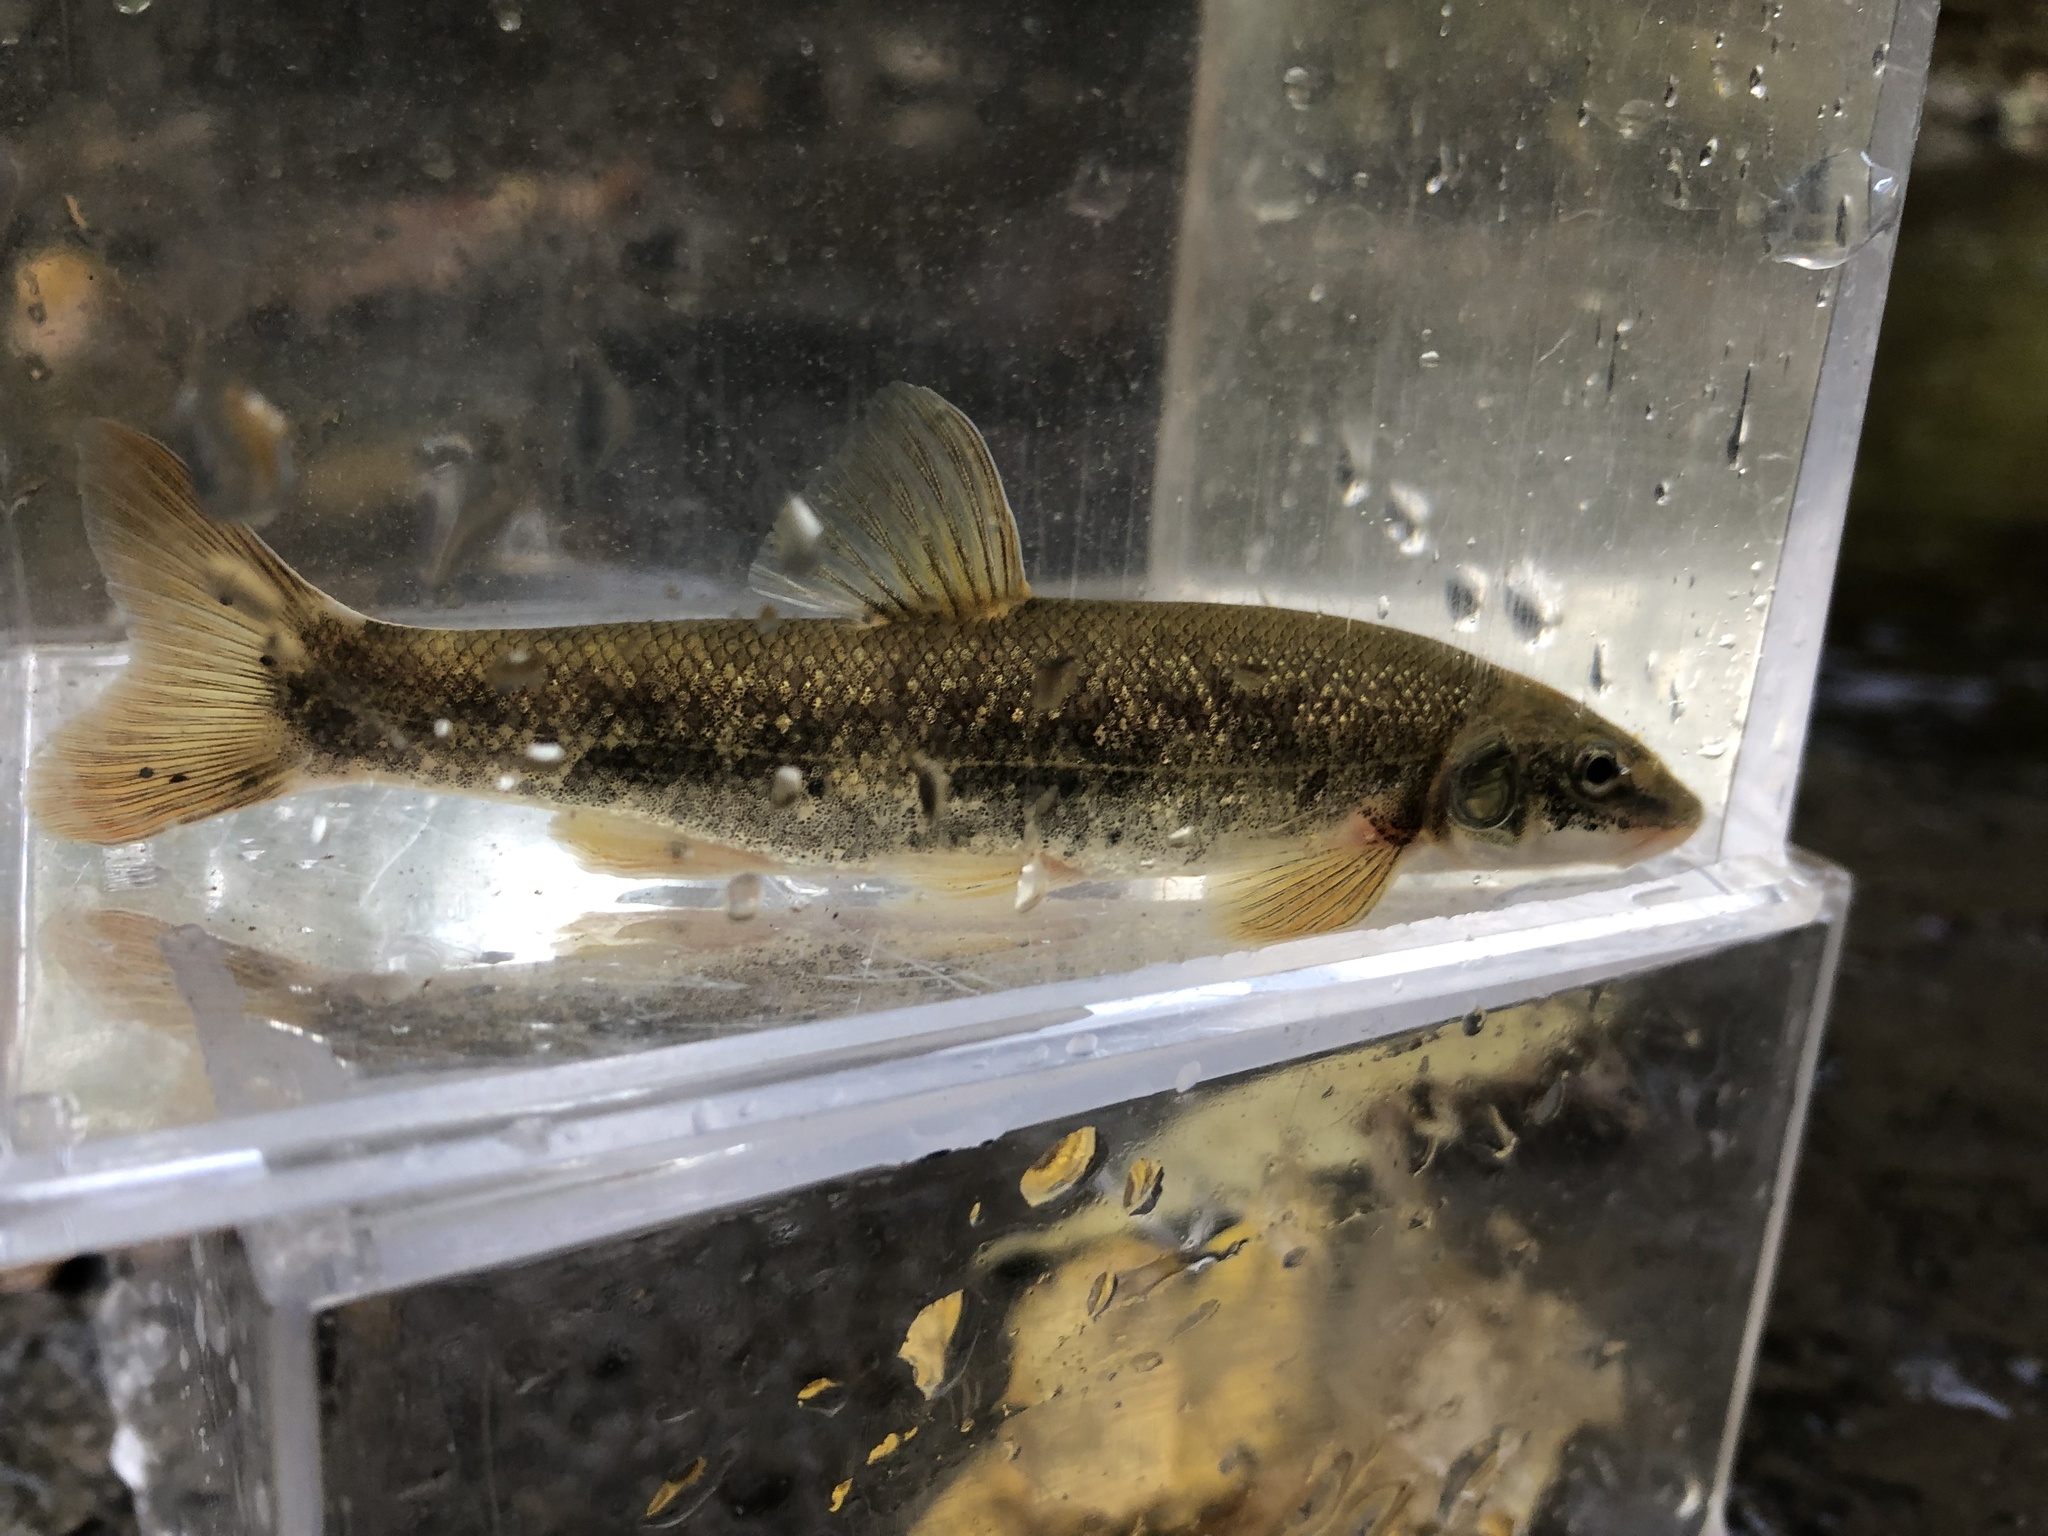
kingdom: Animalia
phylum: Chordata
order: Cypriniformes
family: Cyprinidae
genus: Rhinichthys
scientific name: Rhinichthys cataractae
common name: Longnose dace
